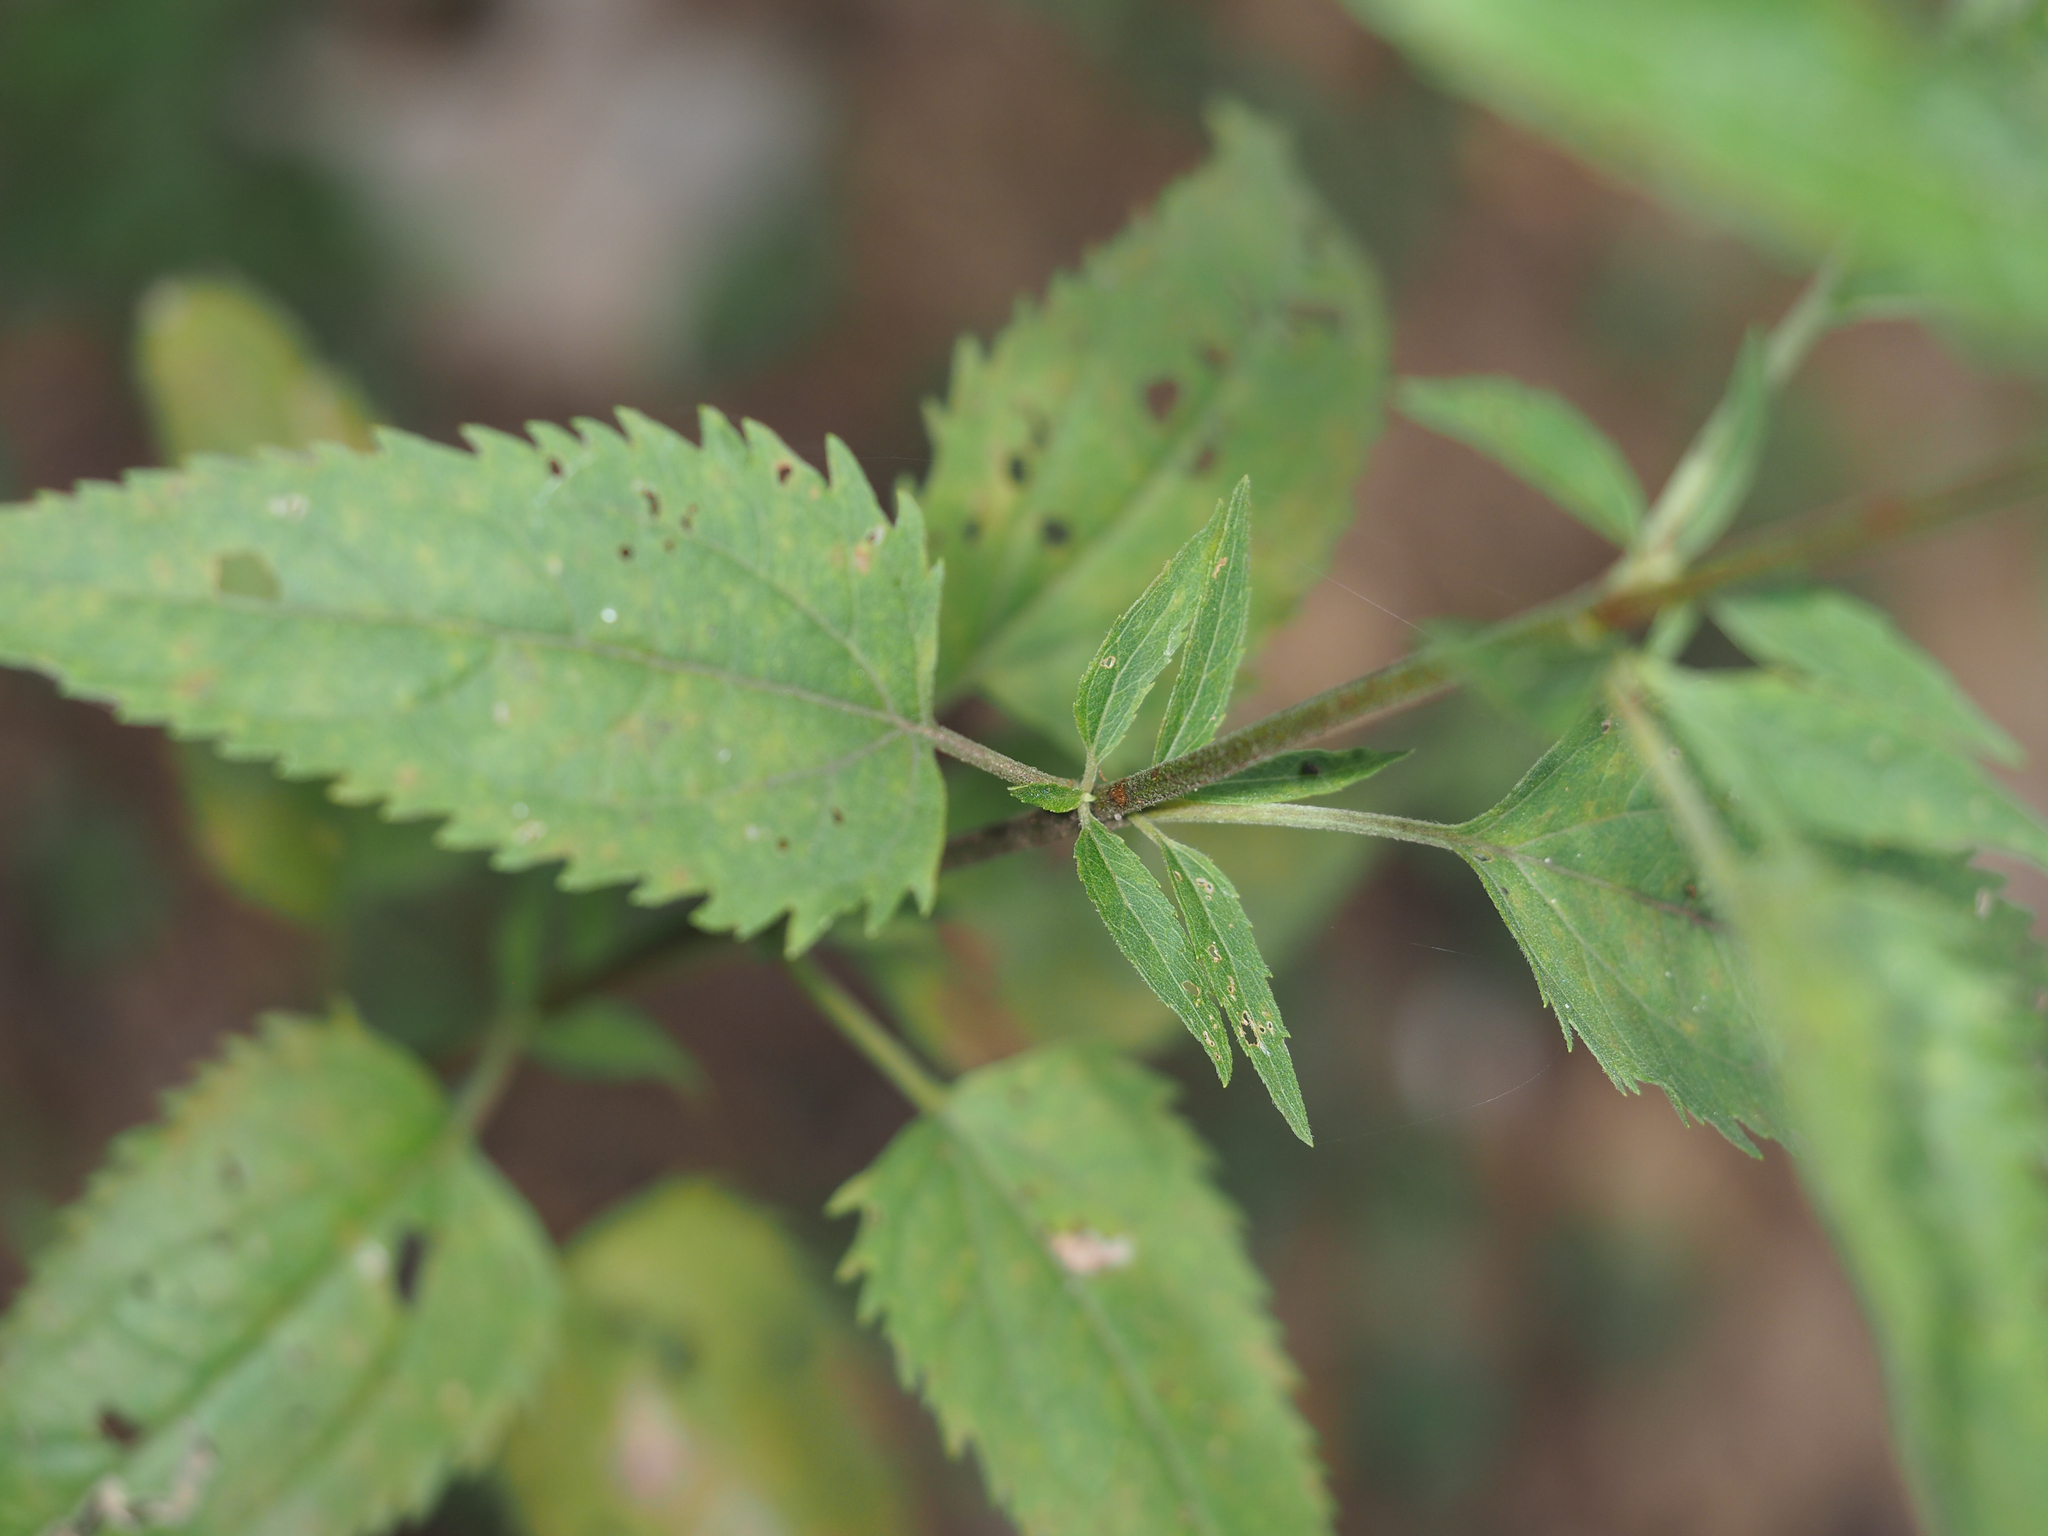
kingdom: Plantae
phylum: Tracheophyta
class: Magnoliopsida
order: Asterales
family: Asteraceae
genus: Eupatorium
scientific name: Eupatorium serotinum
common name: Late boneset
